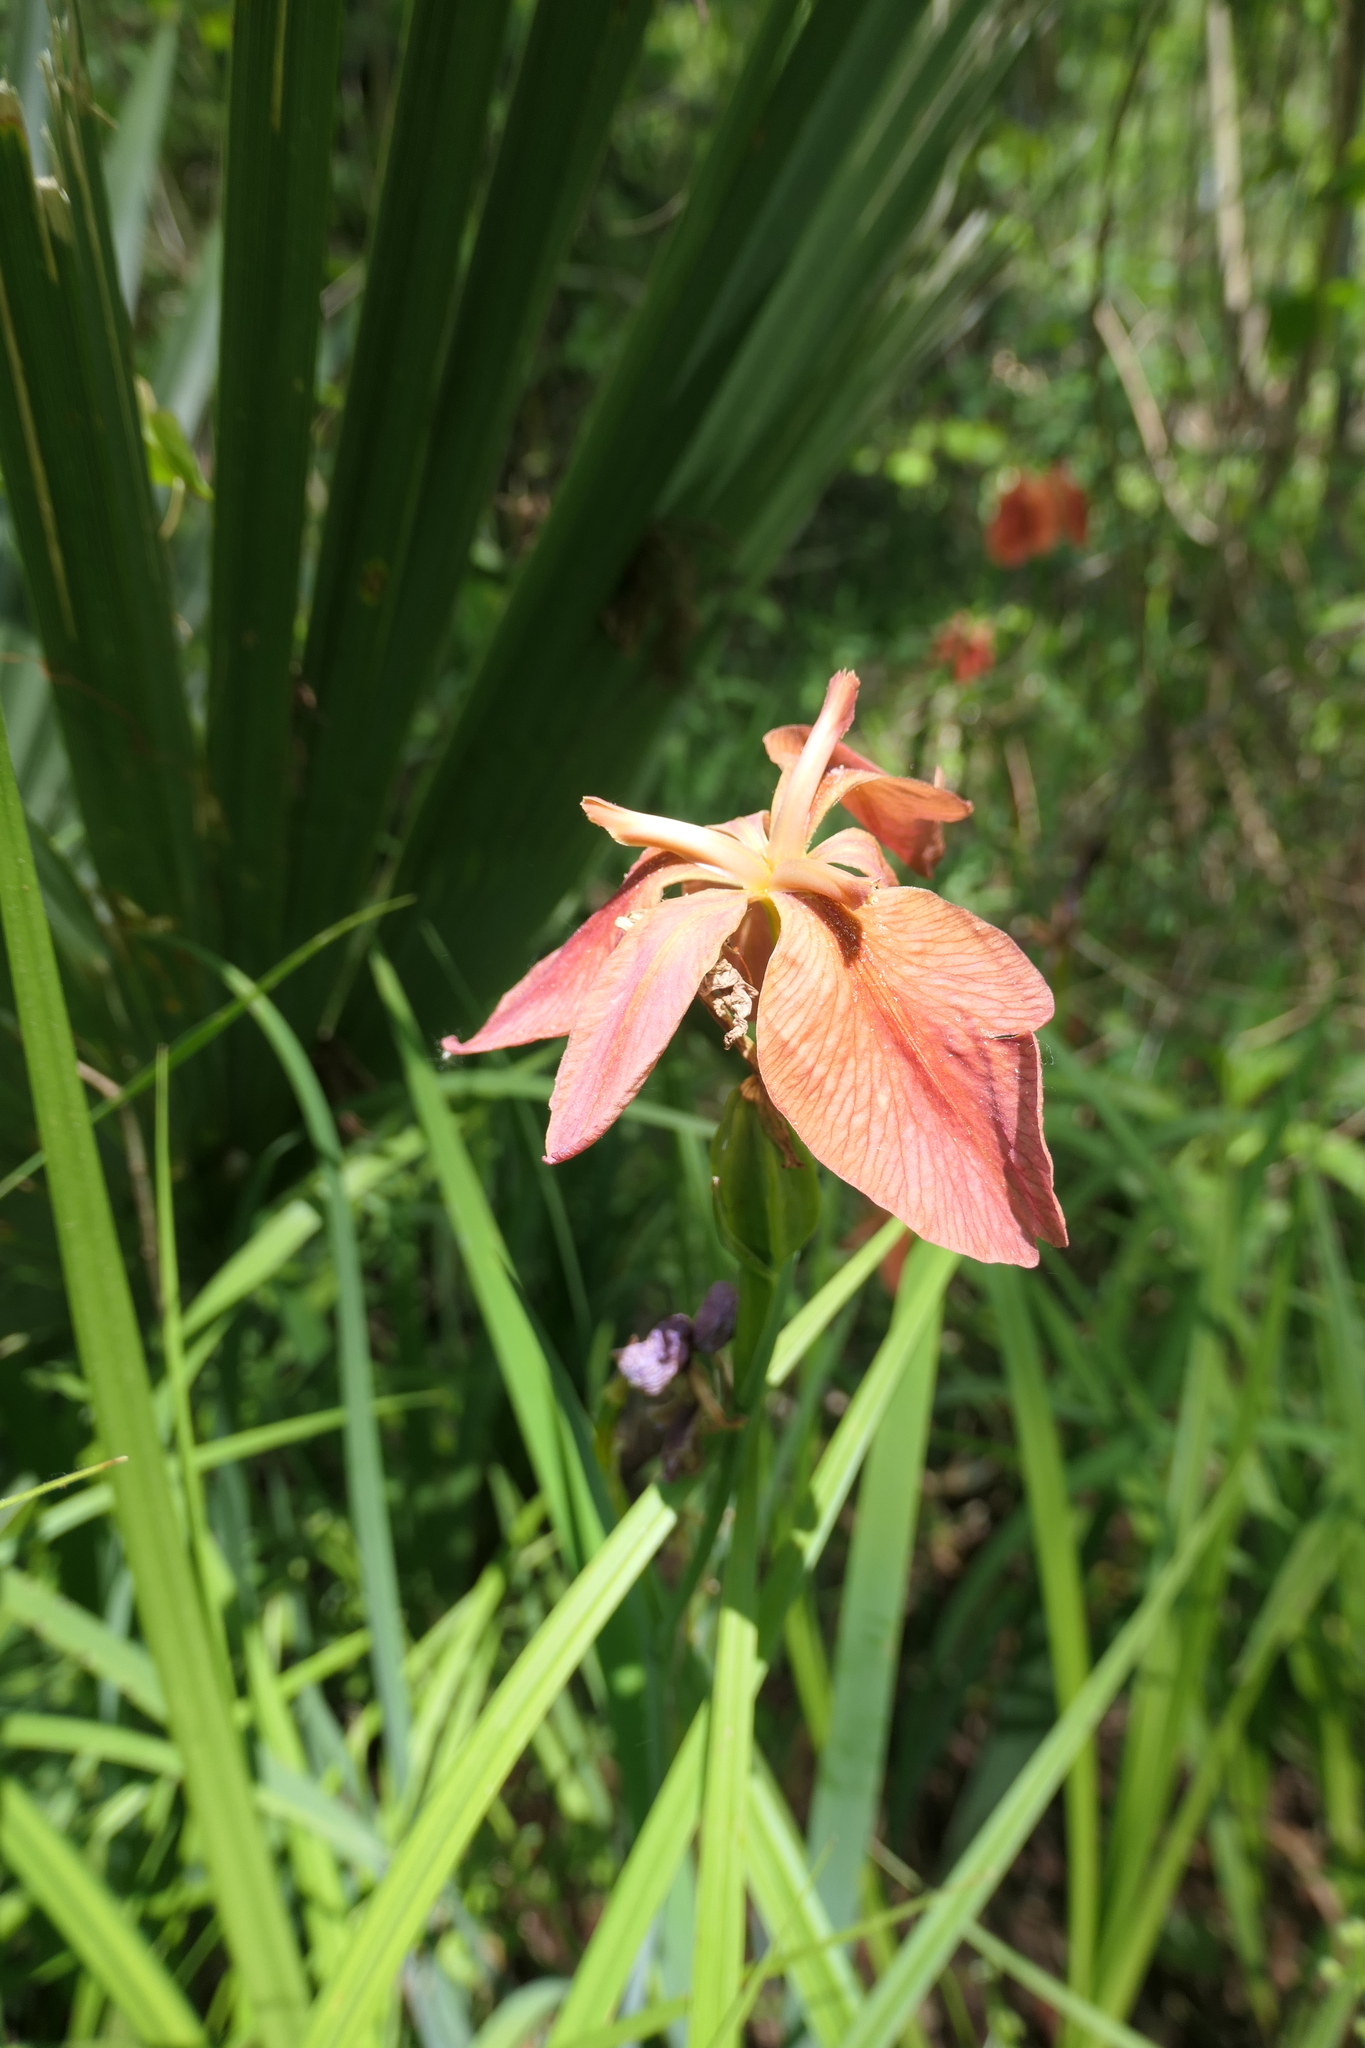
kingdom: Plantae
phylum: Tracheophyta
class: Liliopsida
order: Asparagales
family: Iridaceae
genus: Iris
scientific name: Iris fulva
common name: Copper iris
